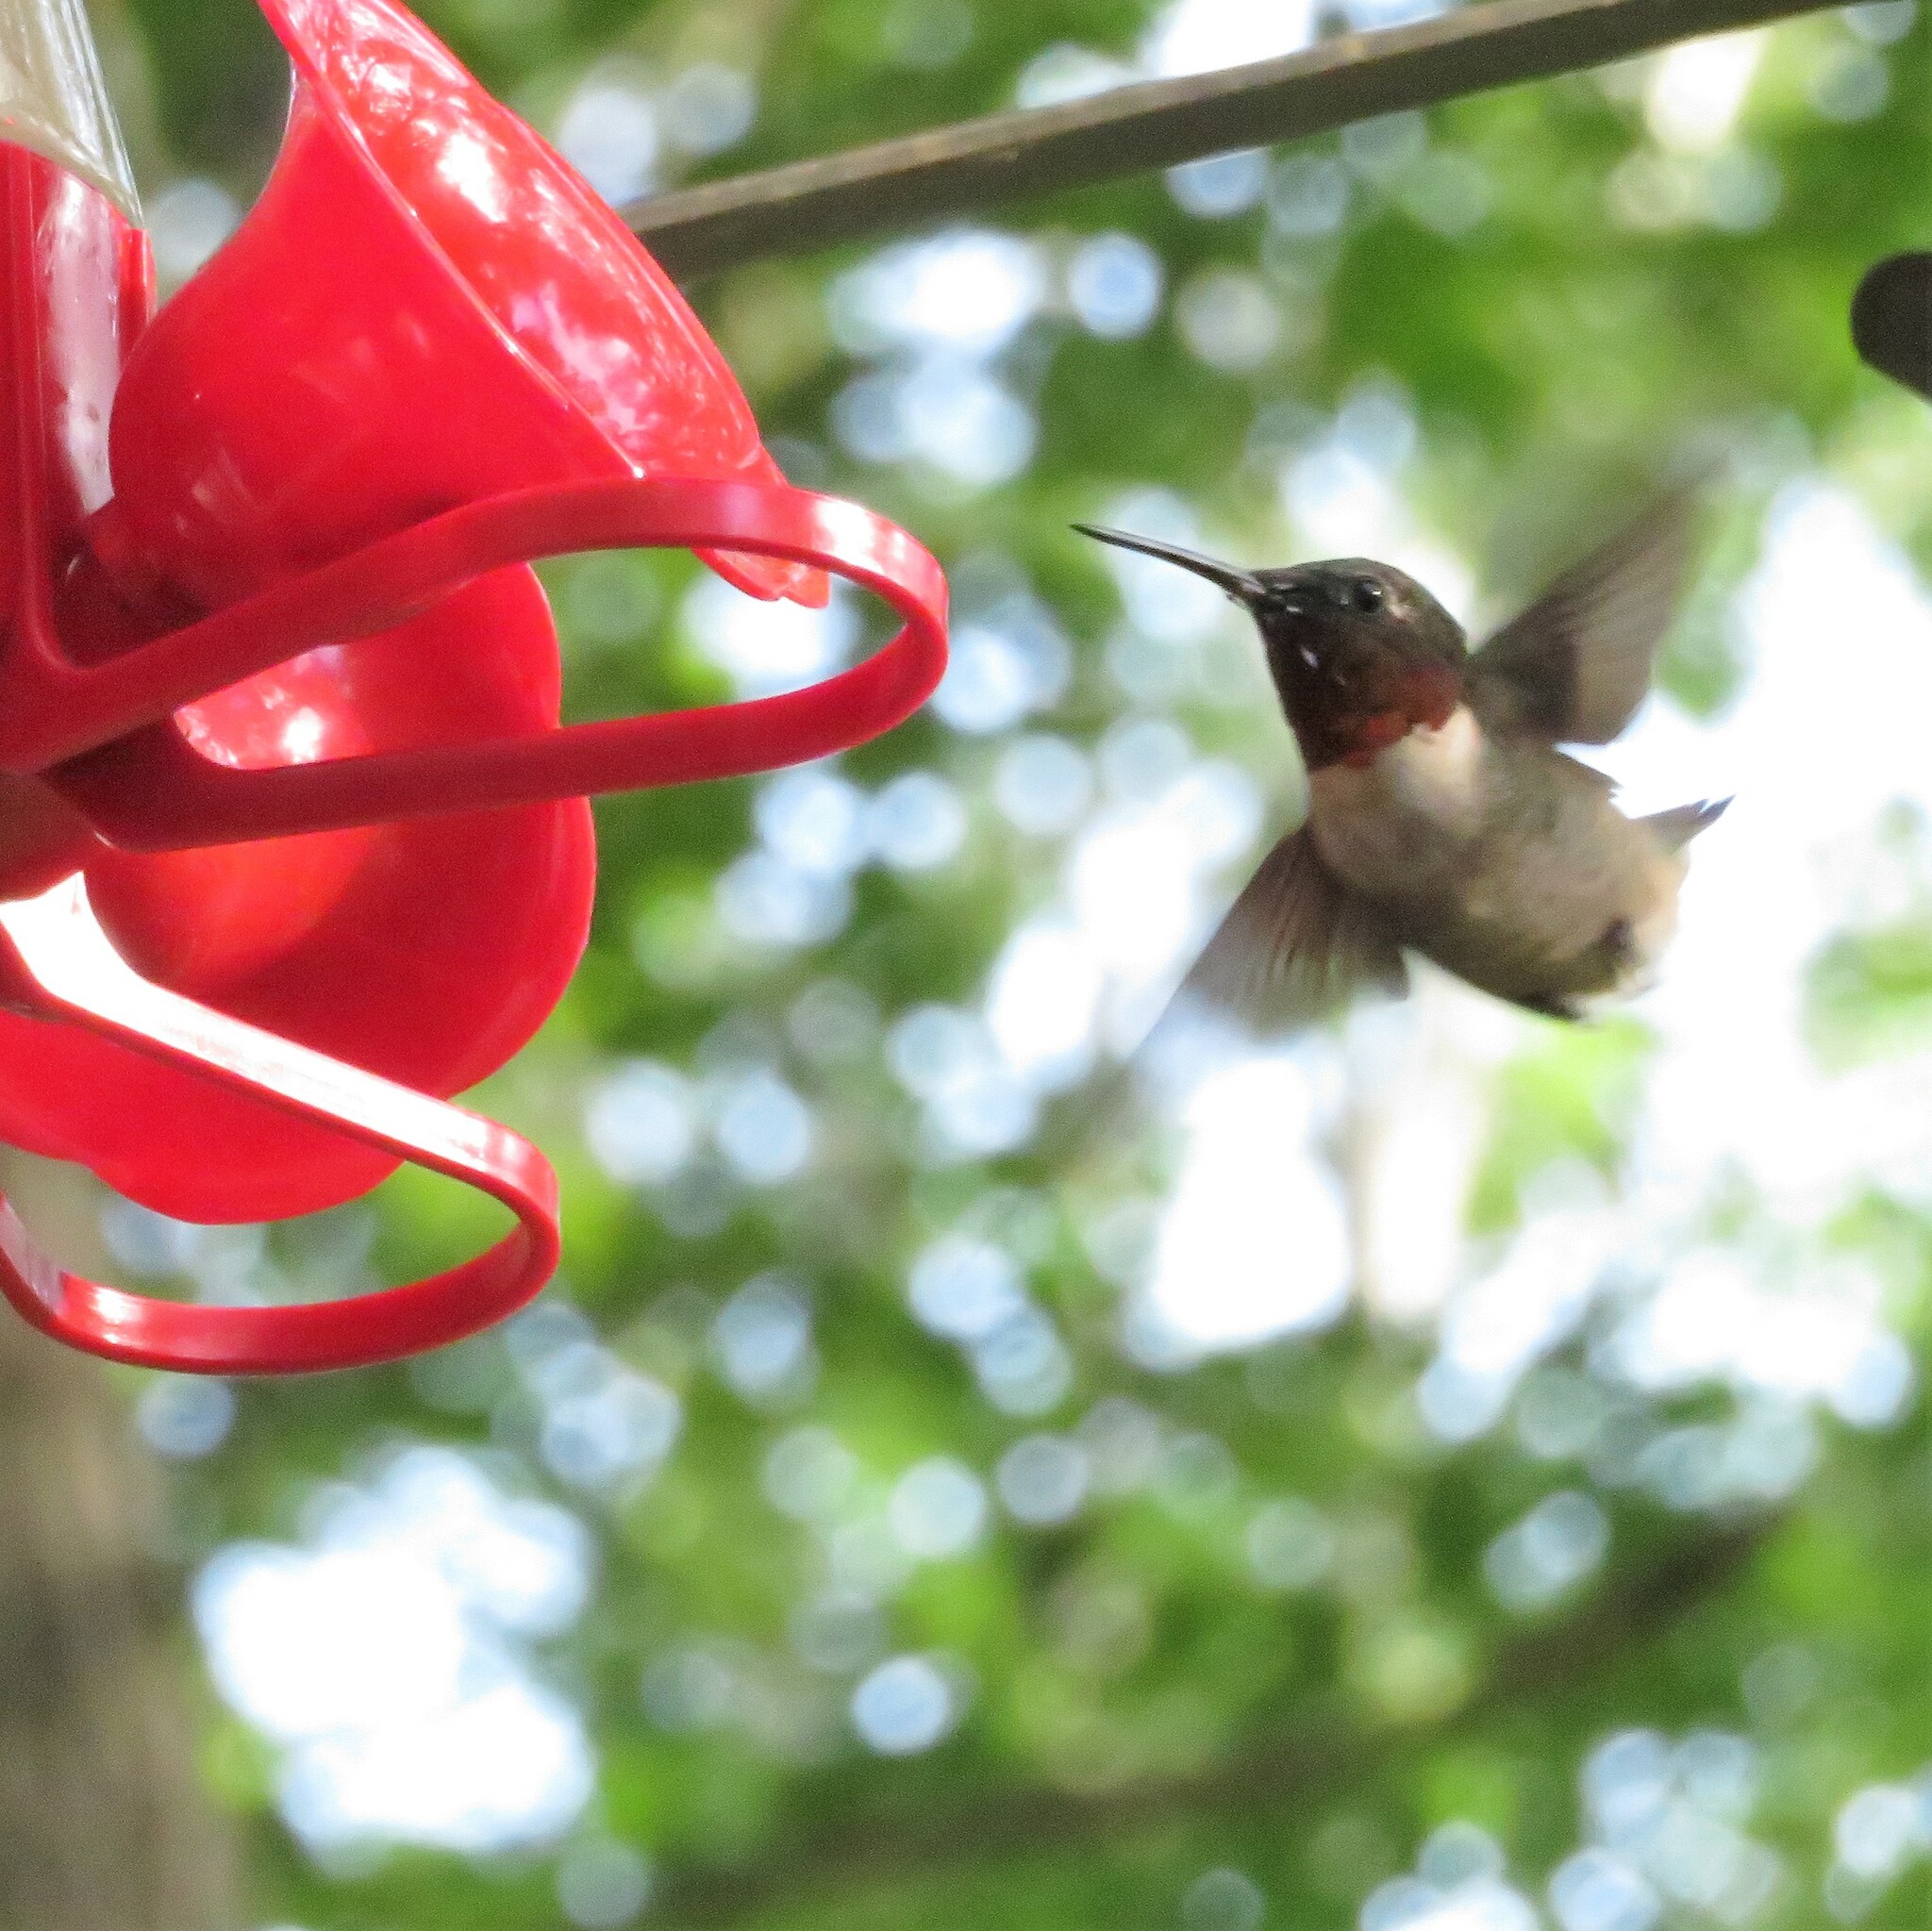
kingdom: Animalia
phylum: Chordata
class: Aves
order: Apodiformes
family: Trochilidae
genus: Archilochus
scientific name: Archilochus colubris
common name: Ruby-throated hummingbird
